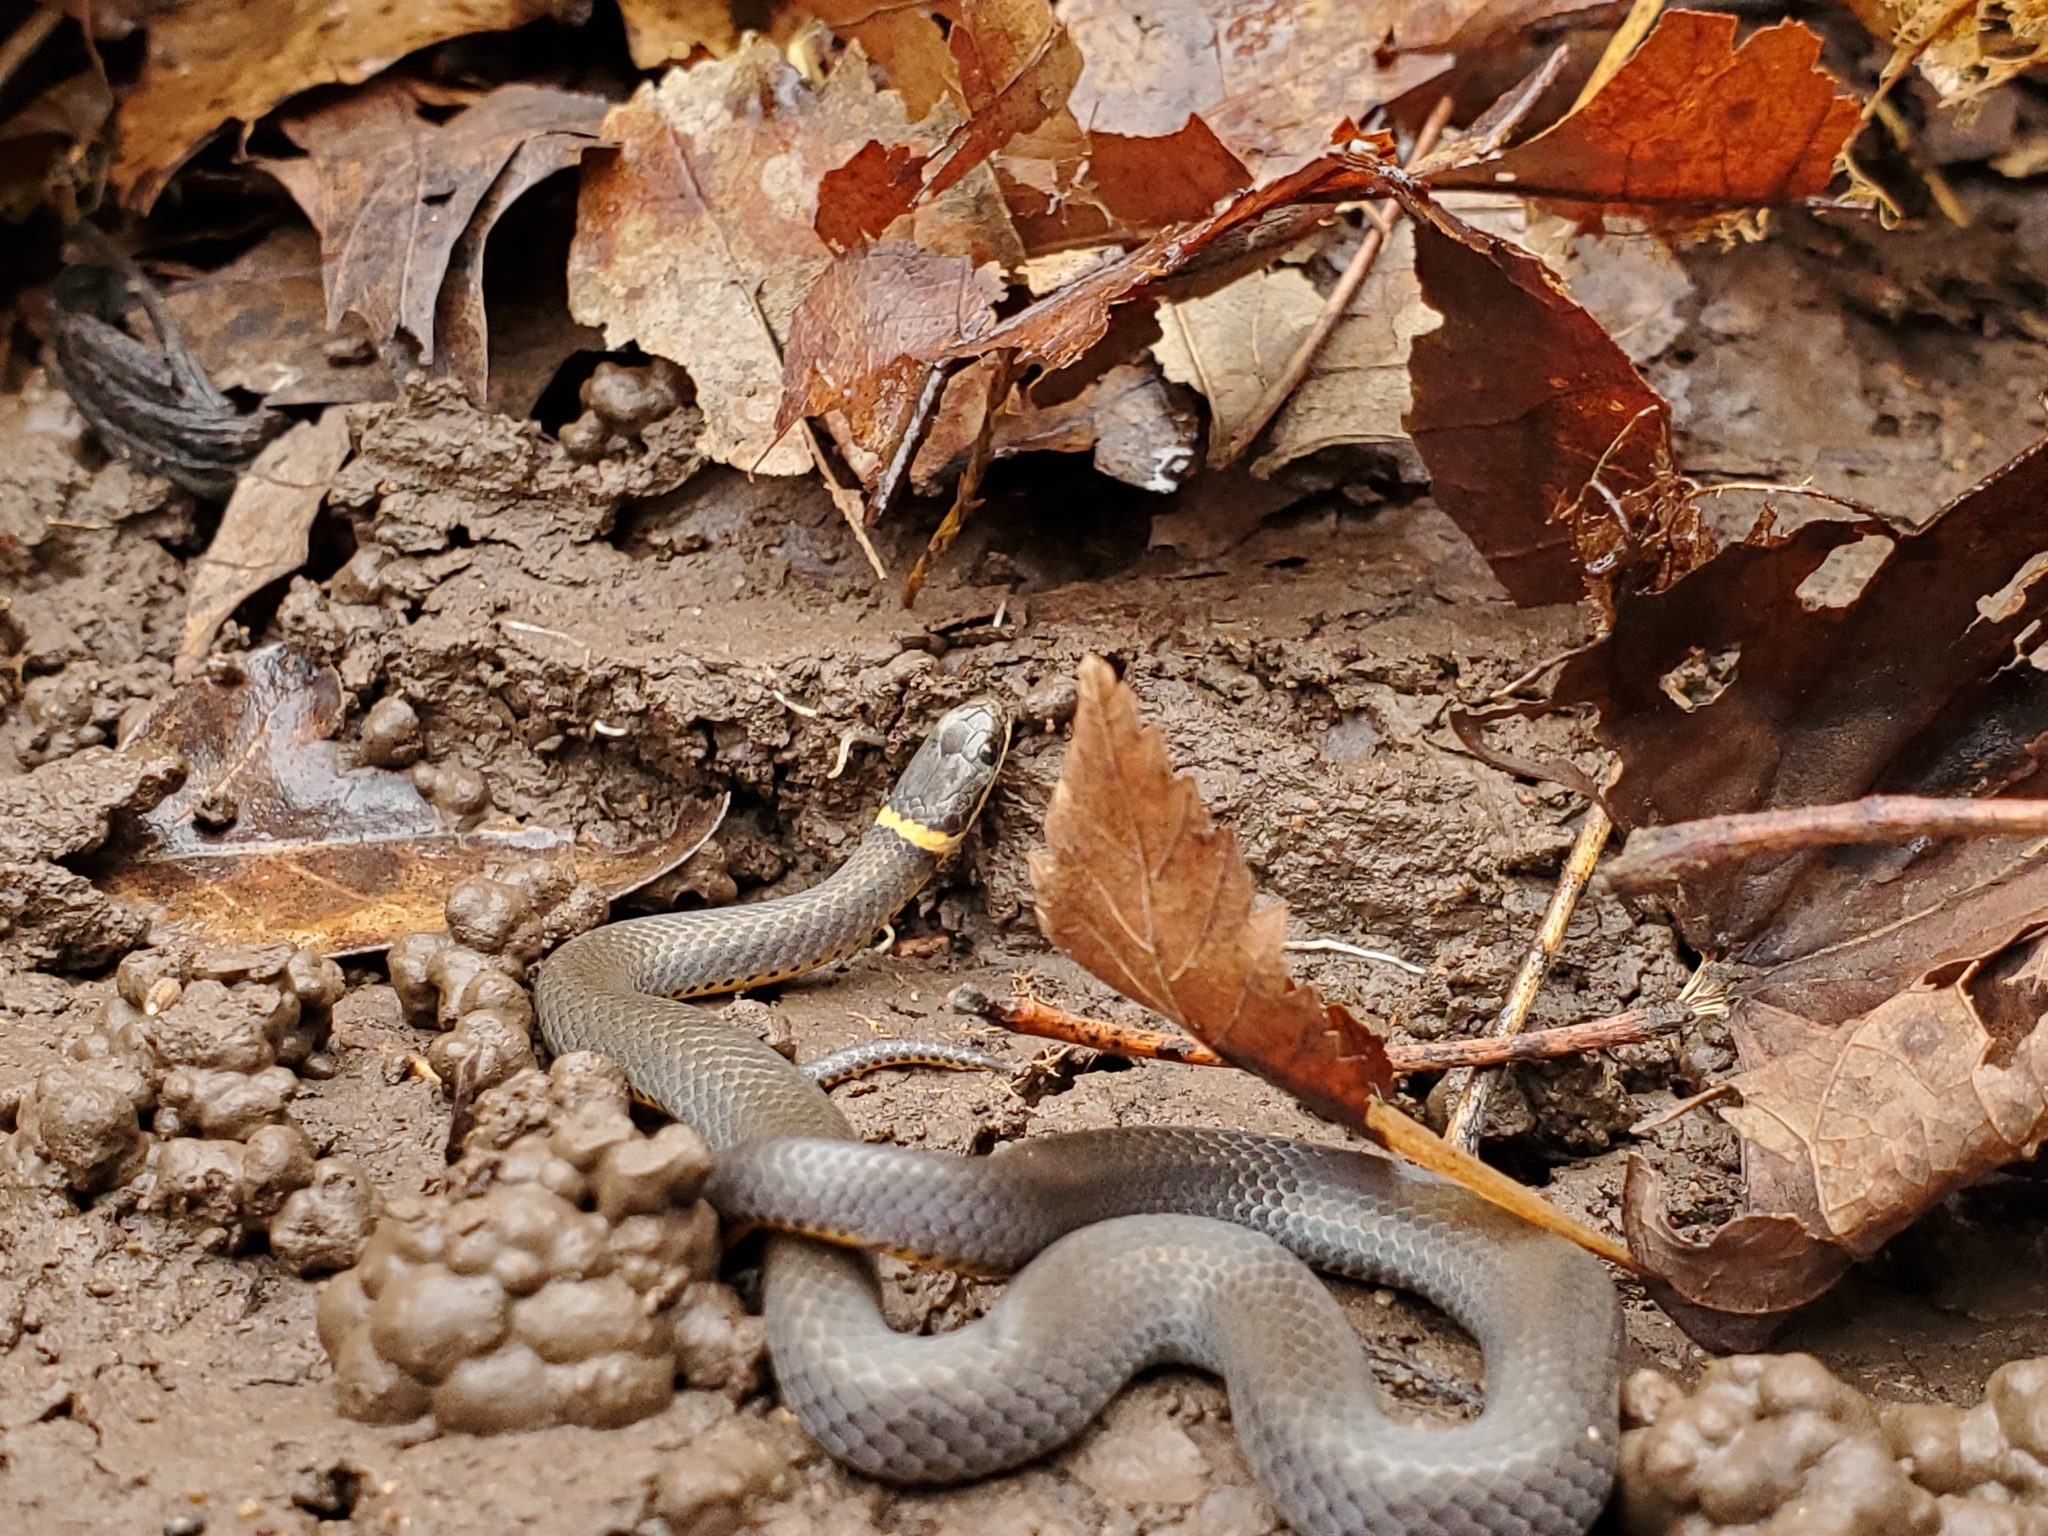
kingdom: Animalia
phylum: Chordata
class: Squamata
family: Colubridae
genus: Diadophis
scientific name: Diadophis punctatus
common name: Ringneck snake
